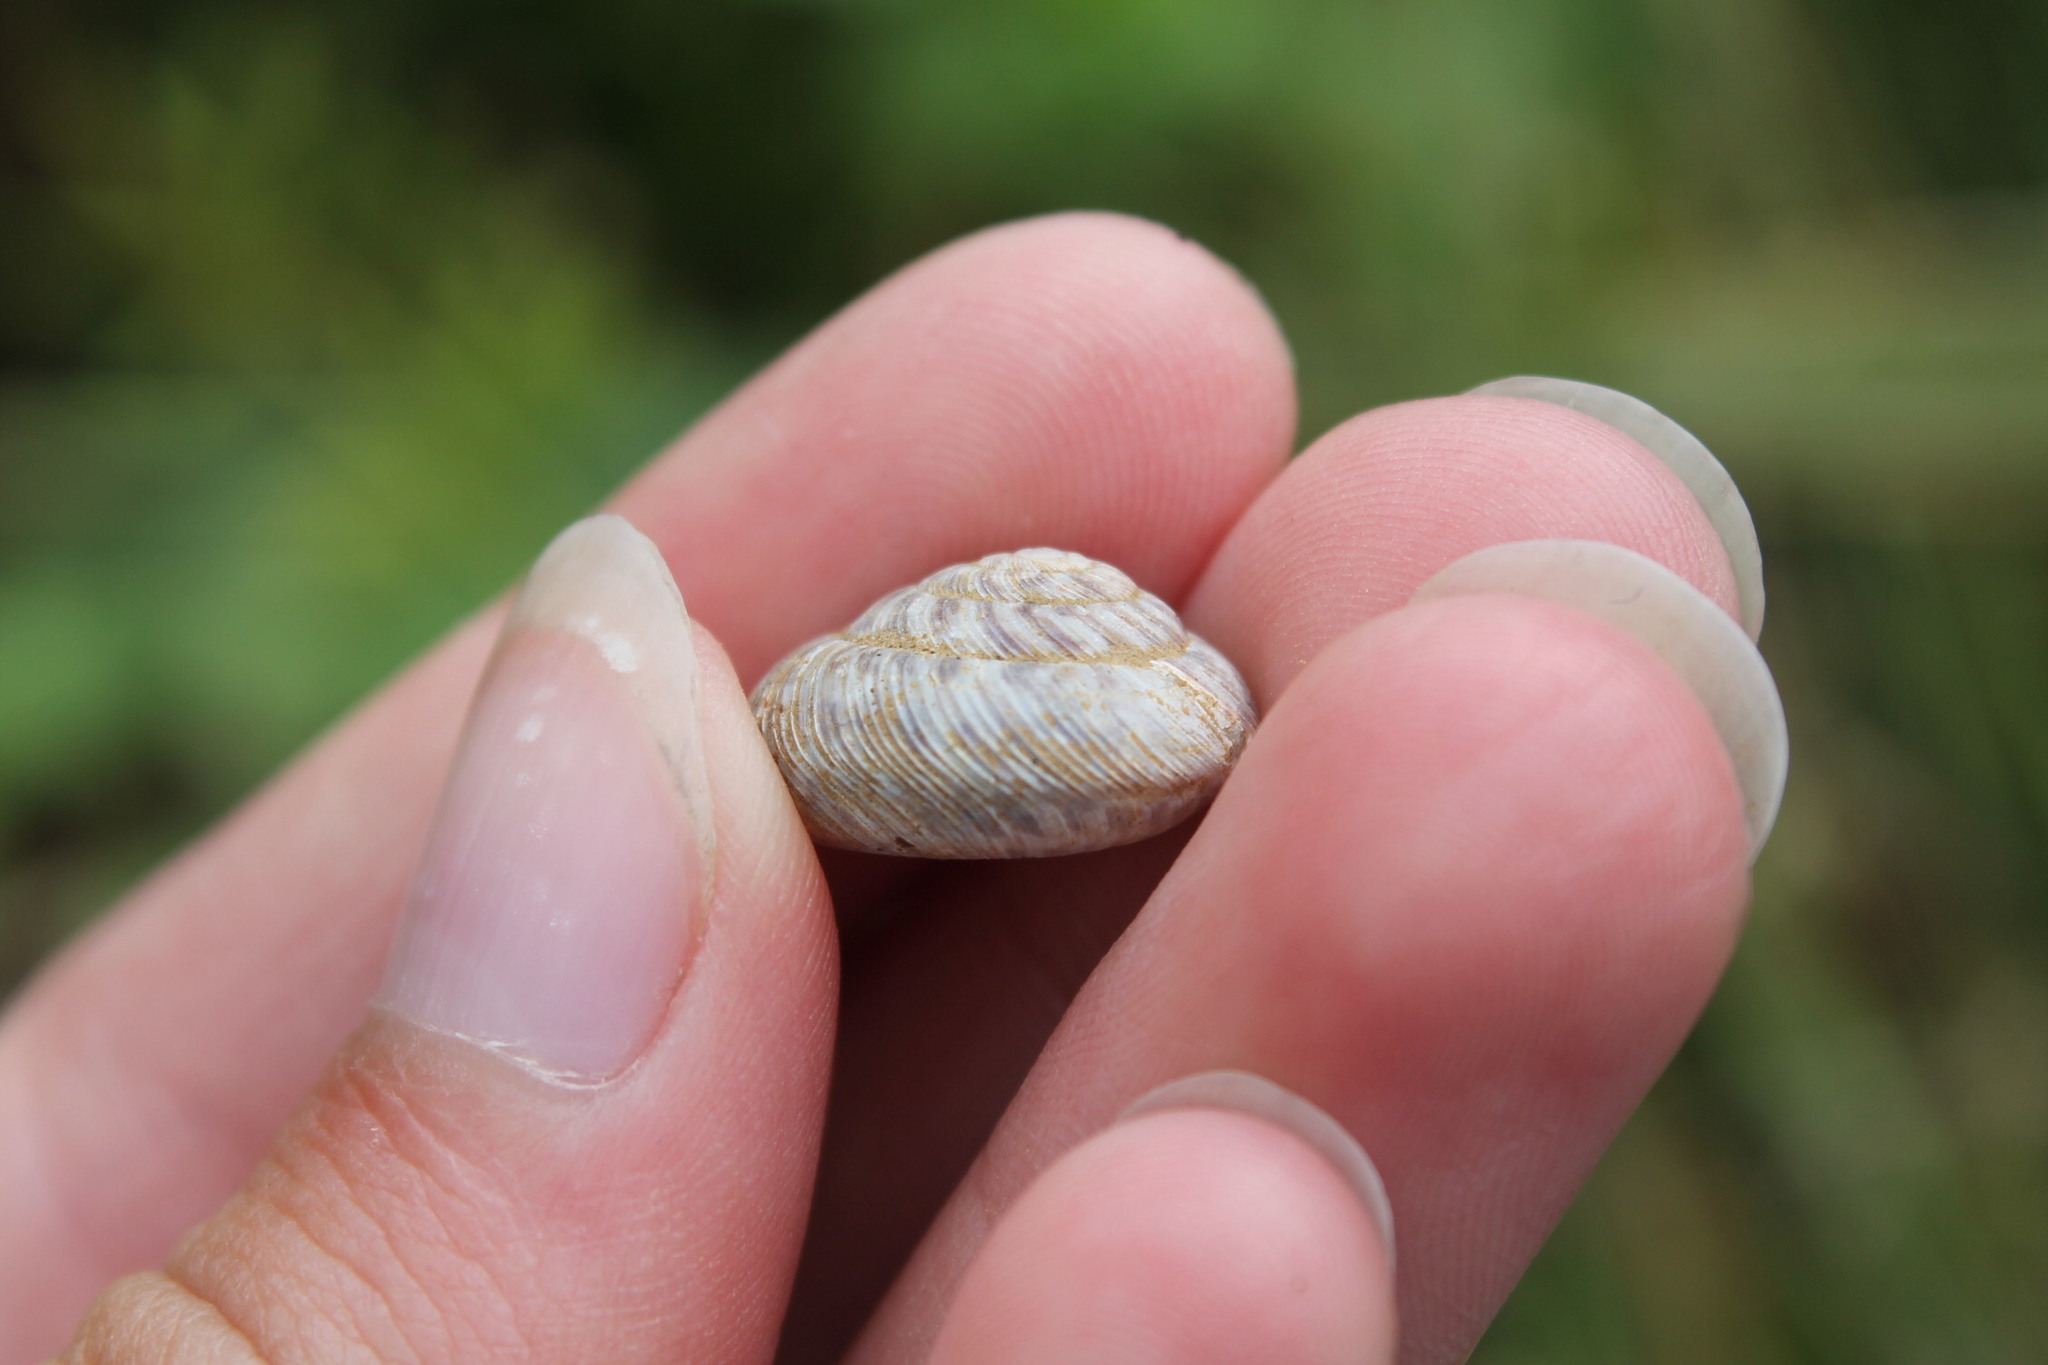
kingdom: Animalia
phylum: Mollusca
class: Gastropoda
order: Stylommatophora
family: Discidae
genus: Anguispira
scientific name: Anguispira alternata
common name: Flamed tigersnail
